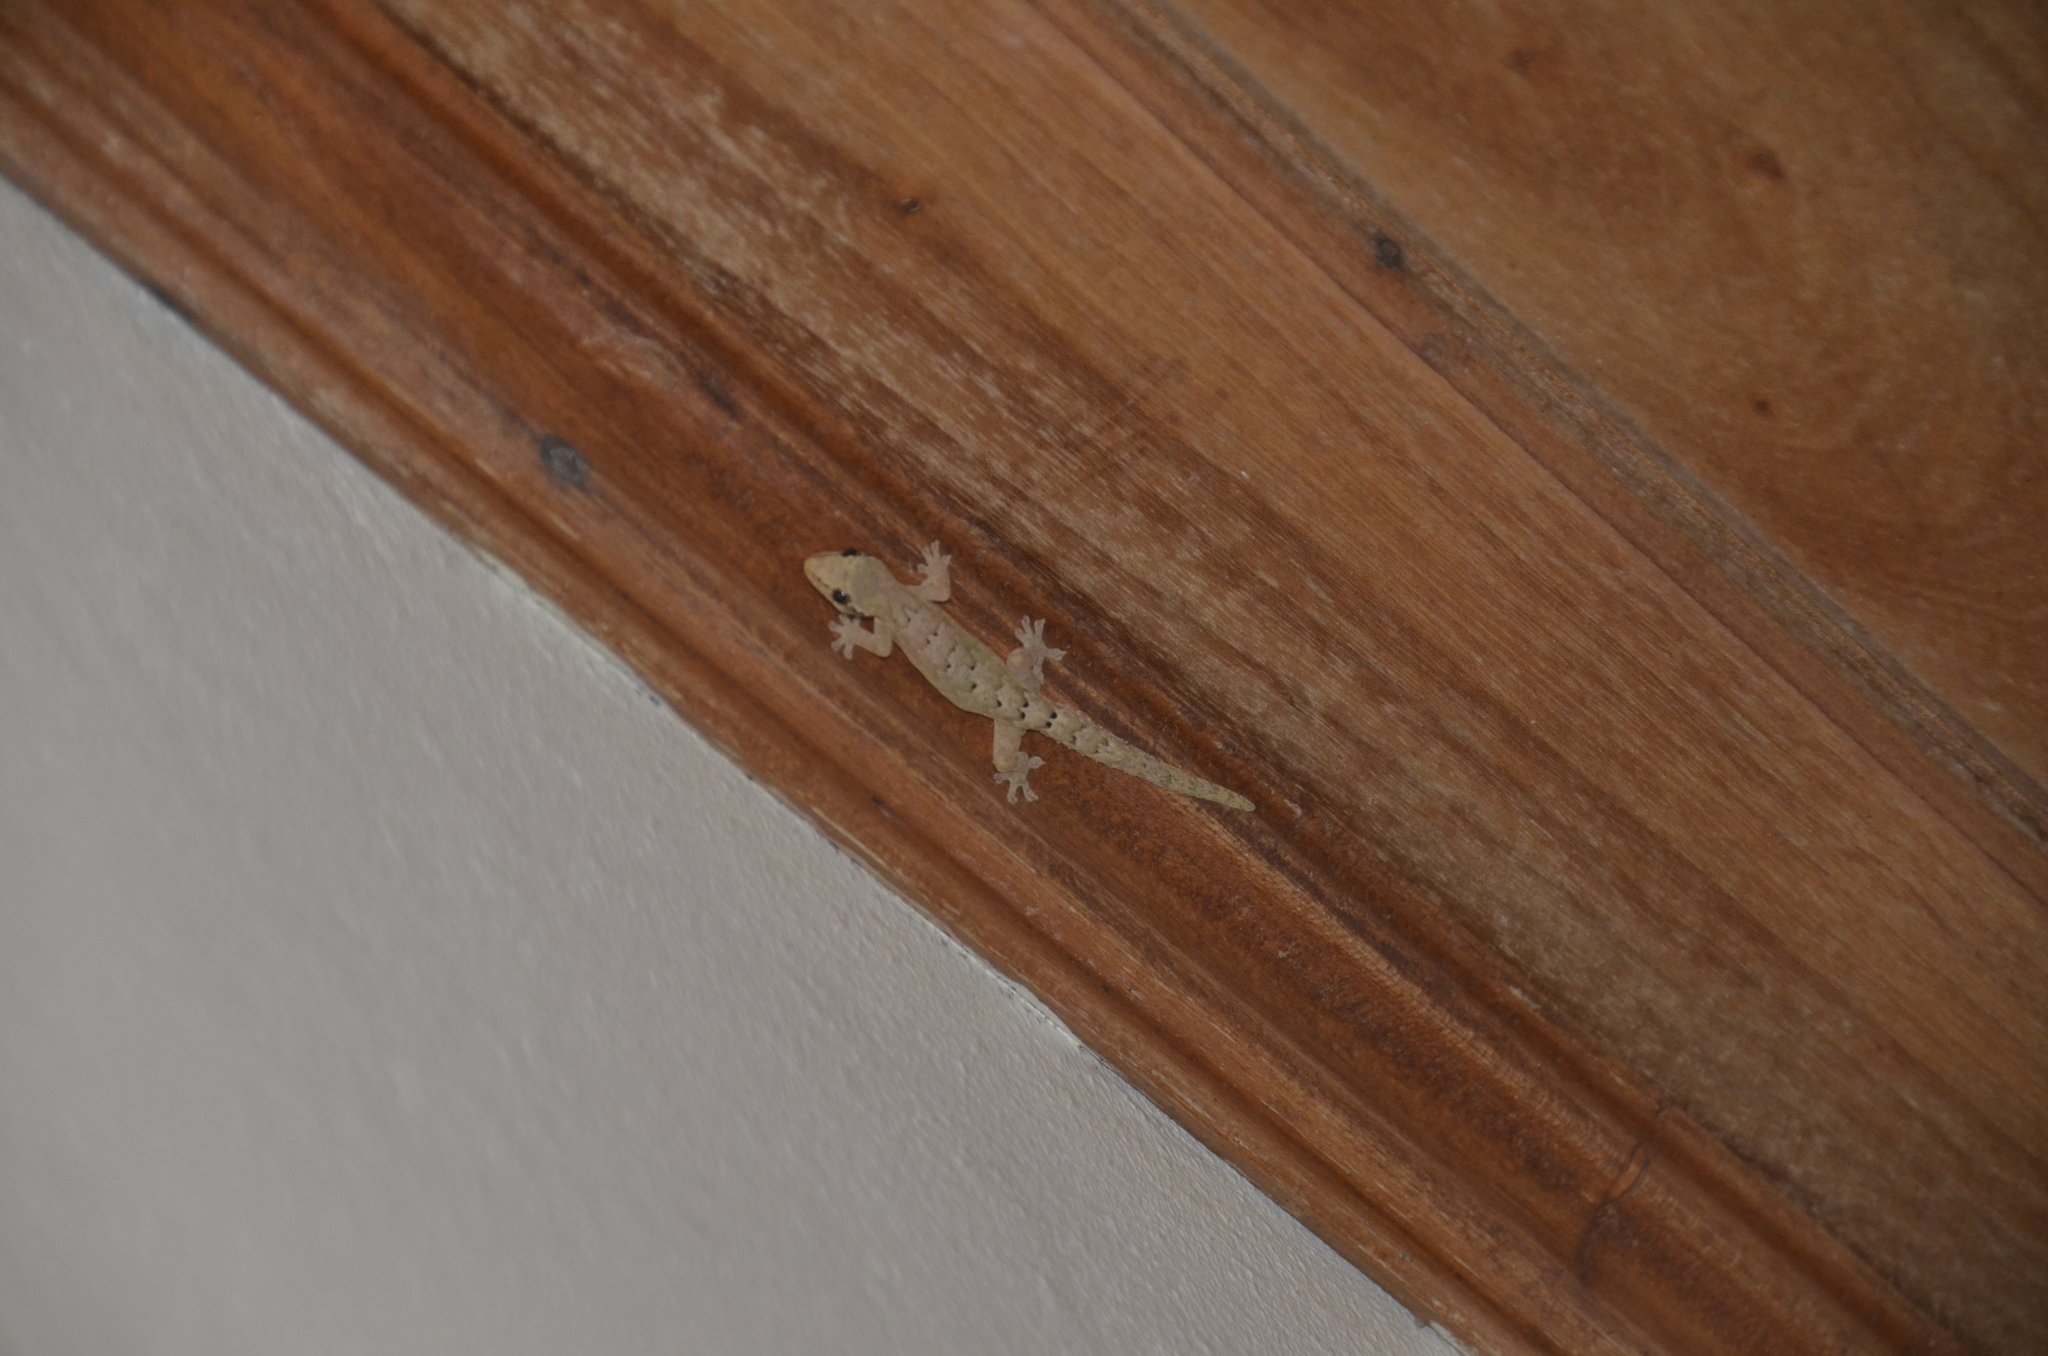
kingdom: Animalia
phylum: Chordata
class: Squamata
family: Gekkonidae
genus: Lepidodactylus
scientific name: Lepidodactylus lugubris
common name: Mourning gecko
